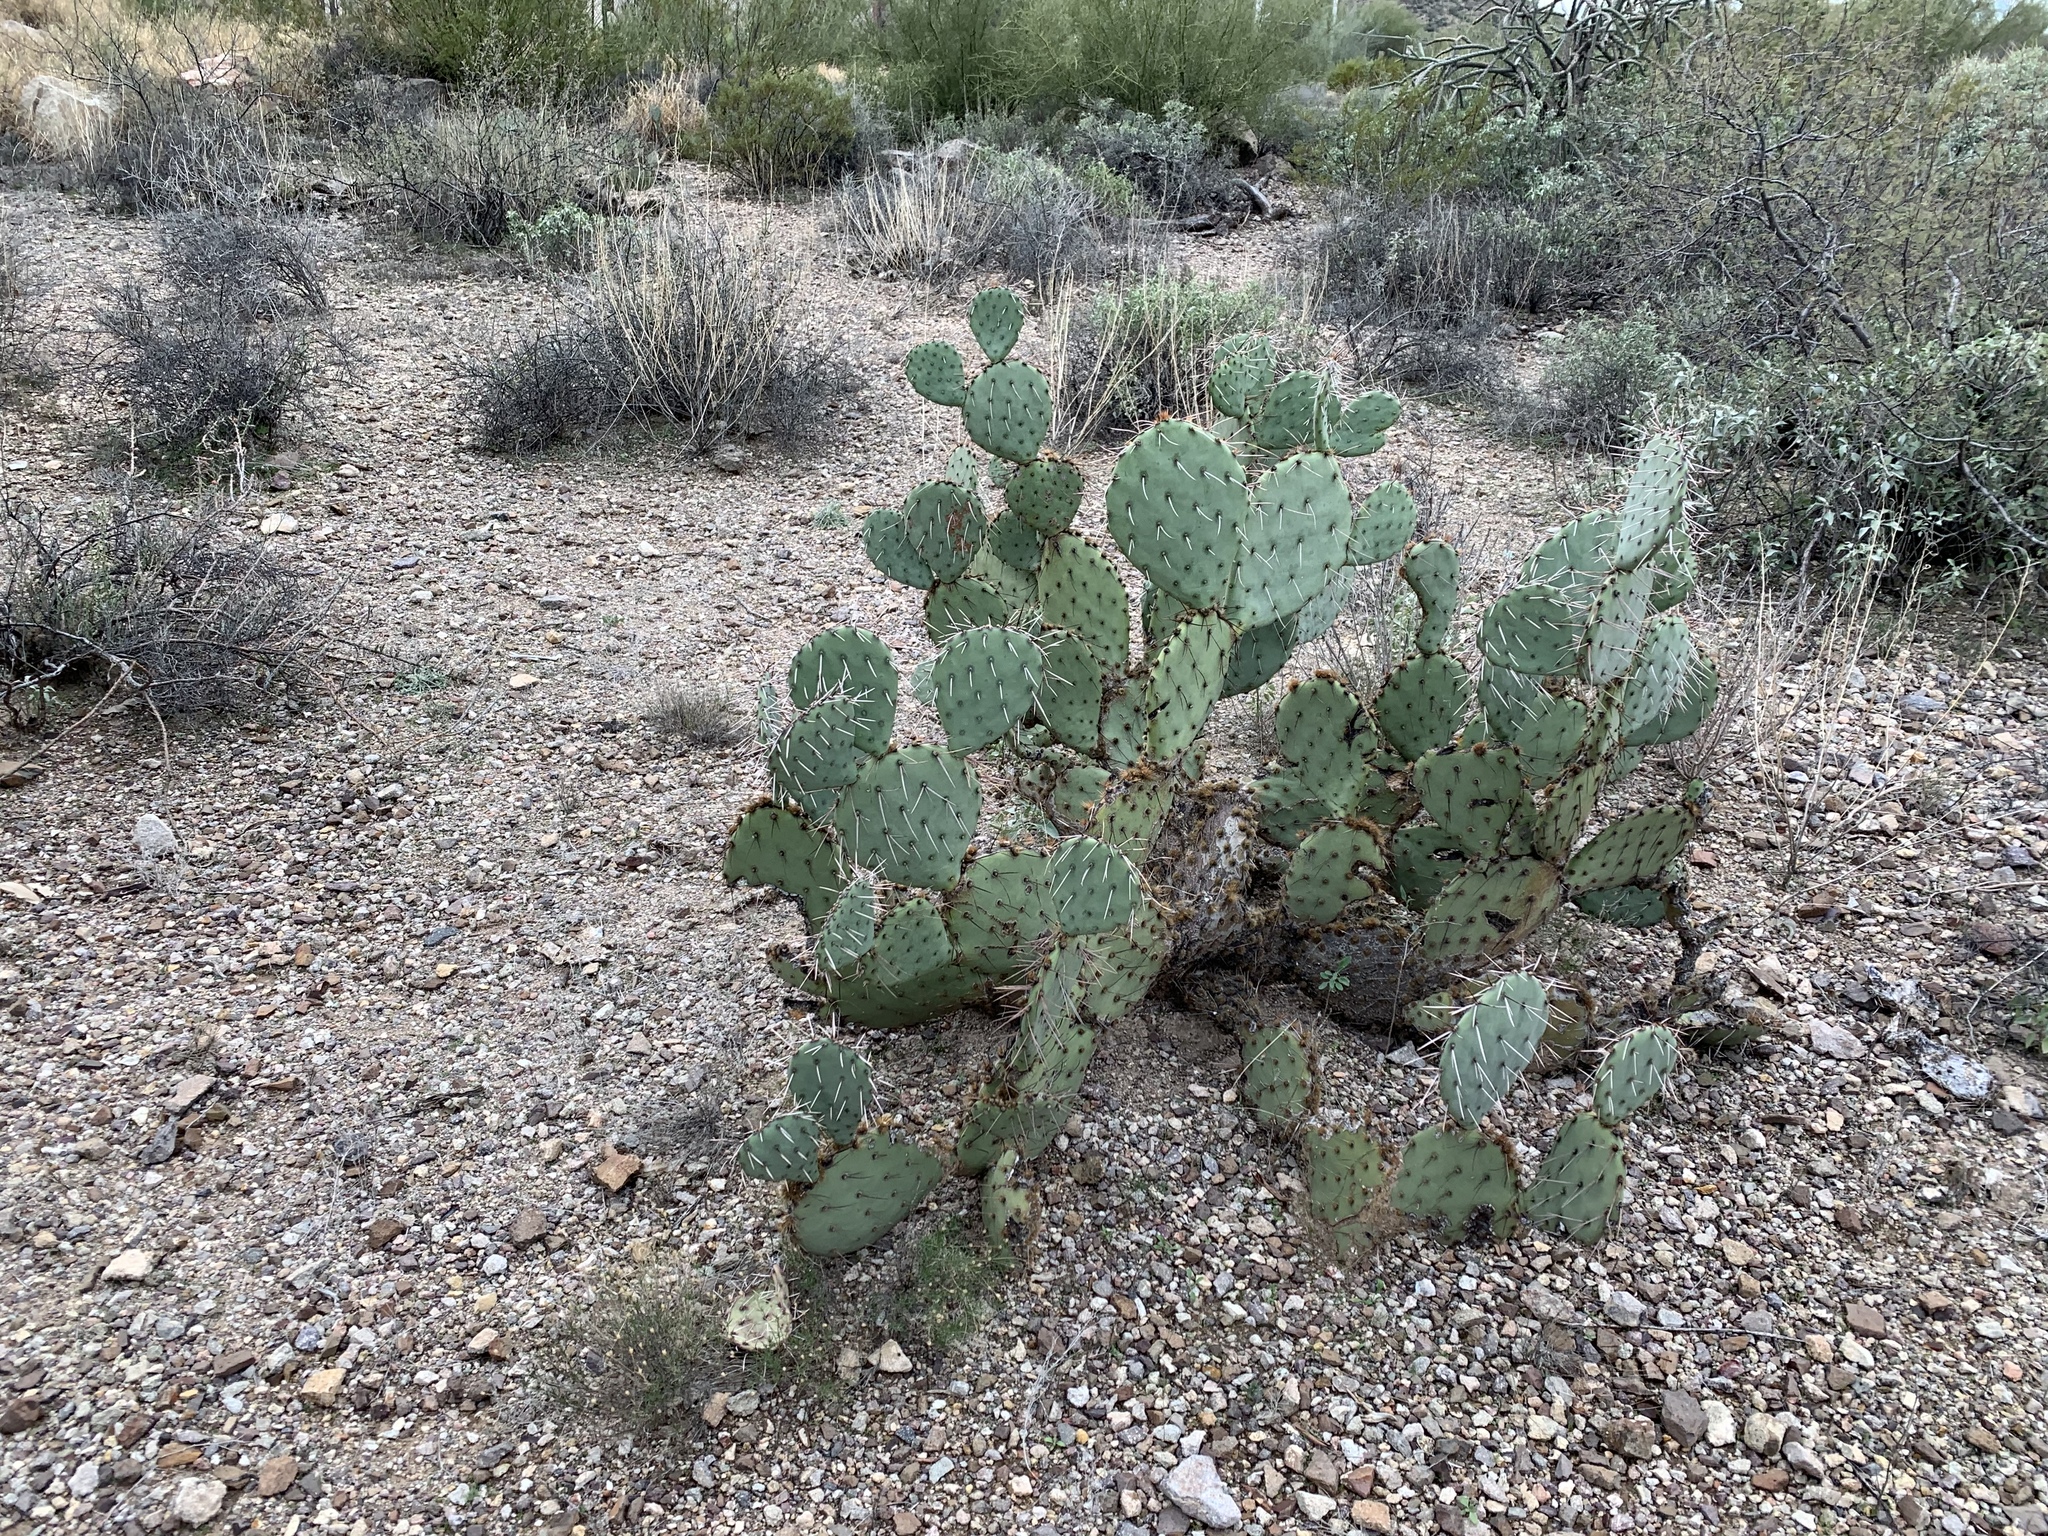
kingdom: Plantae
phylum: Tracheophyta
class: Magnoliopsida
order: Caryophyllales
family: Cactaceae
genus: Opuntia
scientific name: Opuntia engelmannii
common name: Cactus-apple
